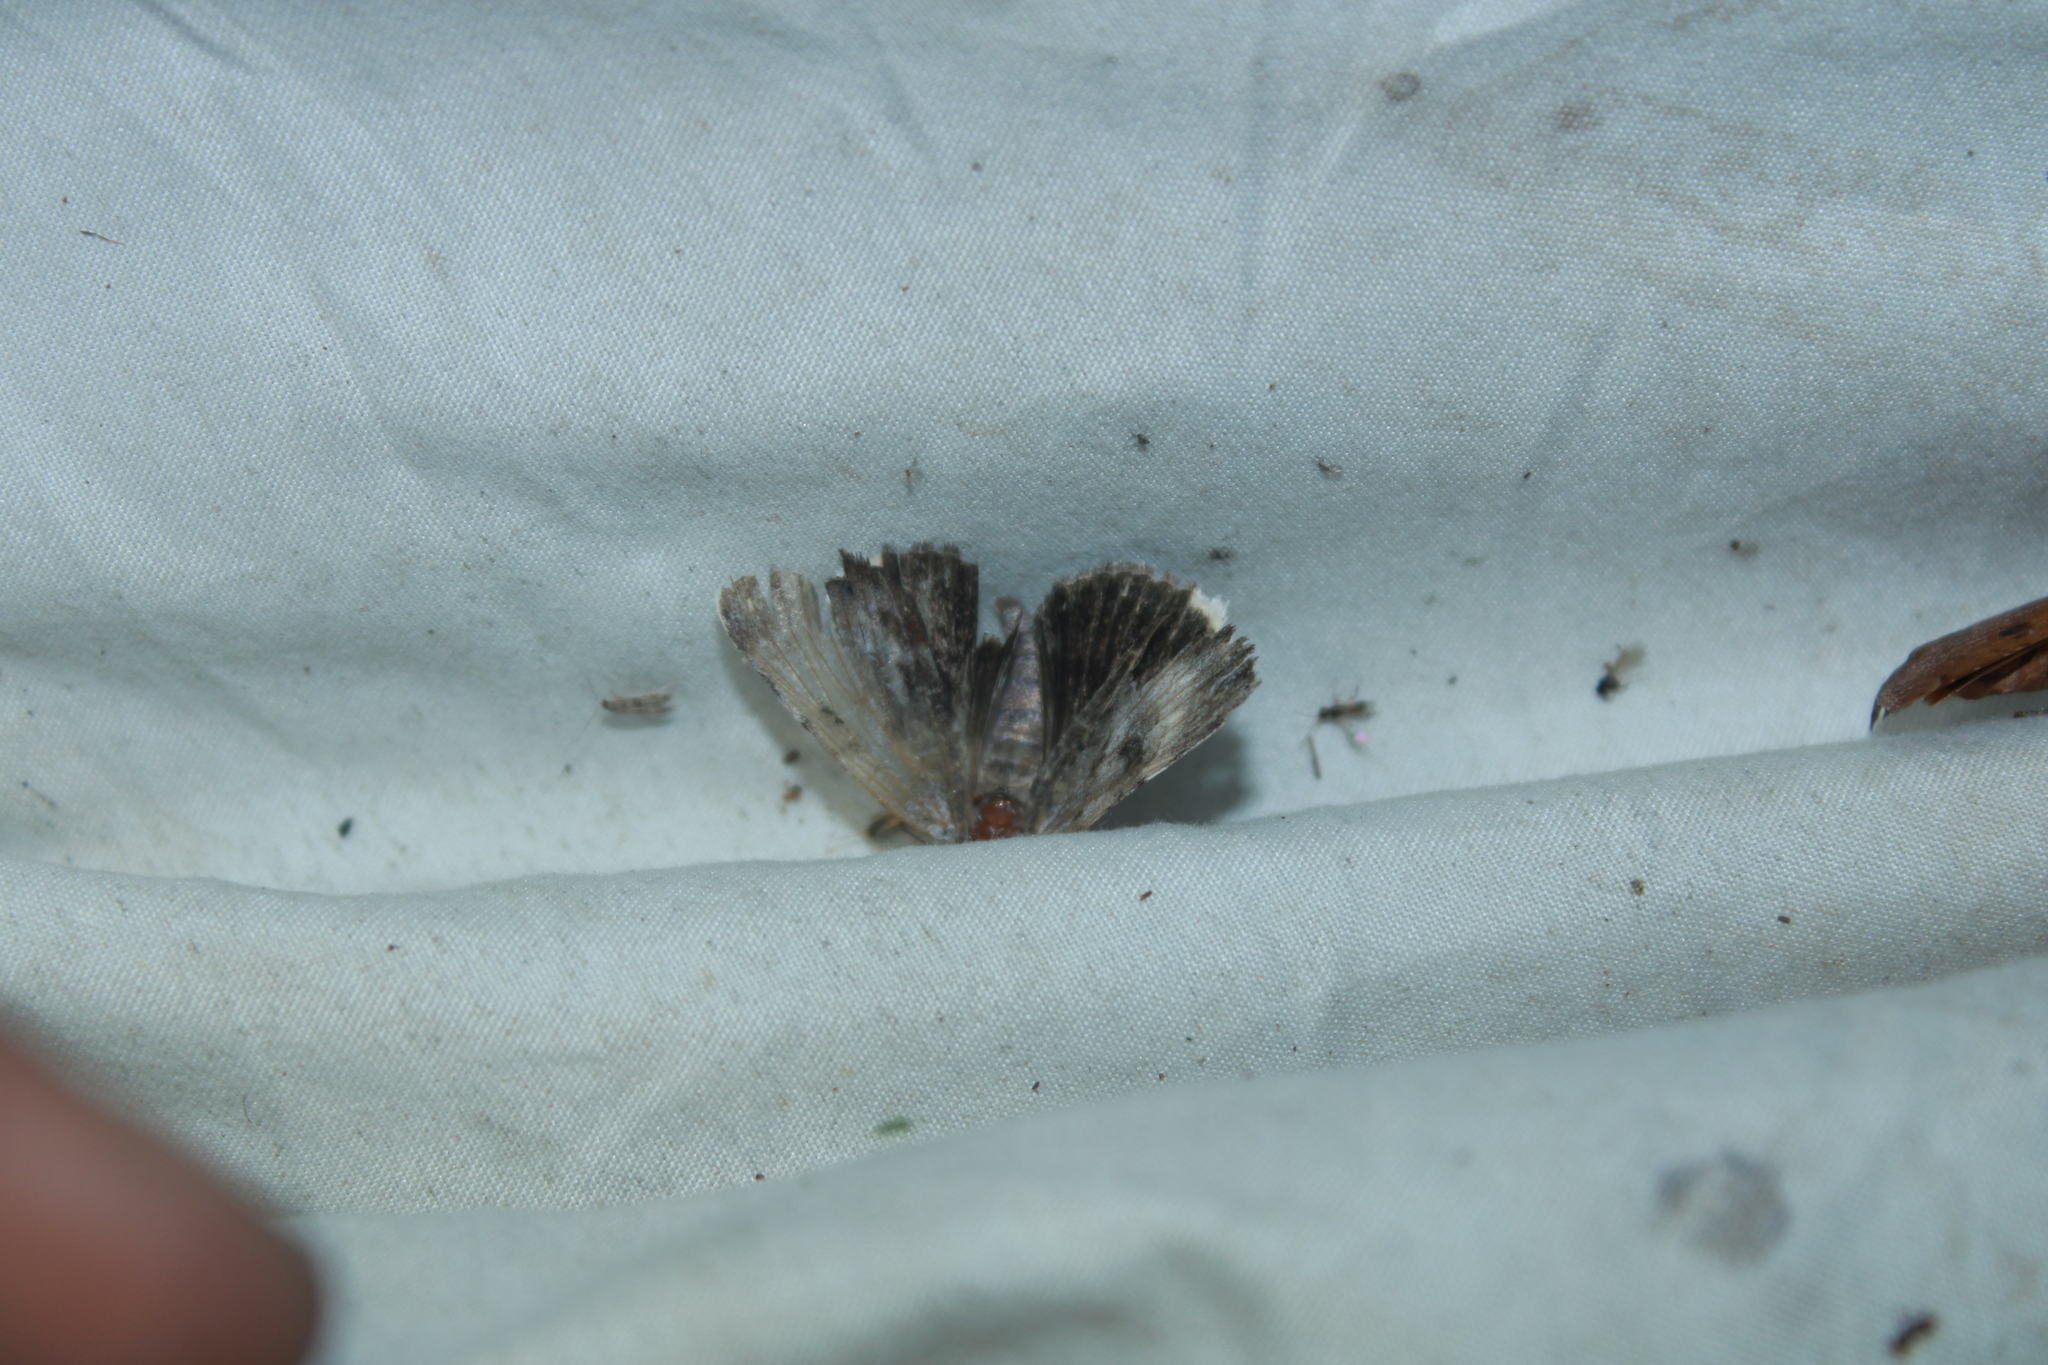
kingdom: Animalia
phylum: Arthropoda
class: Insecta
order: Lepidoptera
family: Erebidae
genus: Catocala
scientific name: Catocala andromedae
